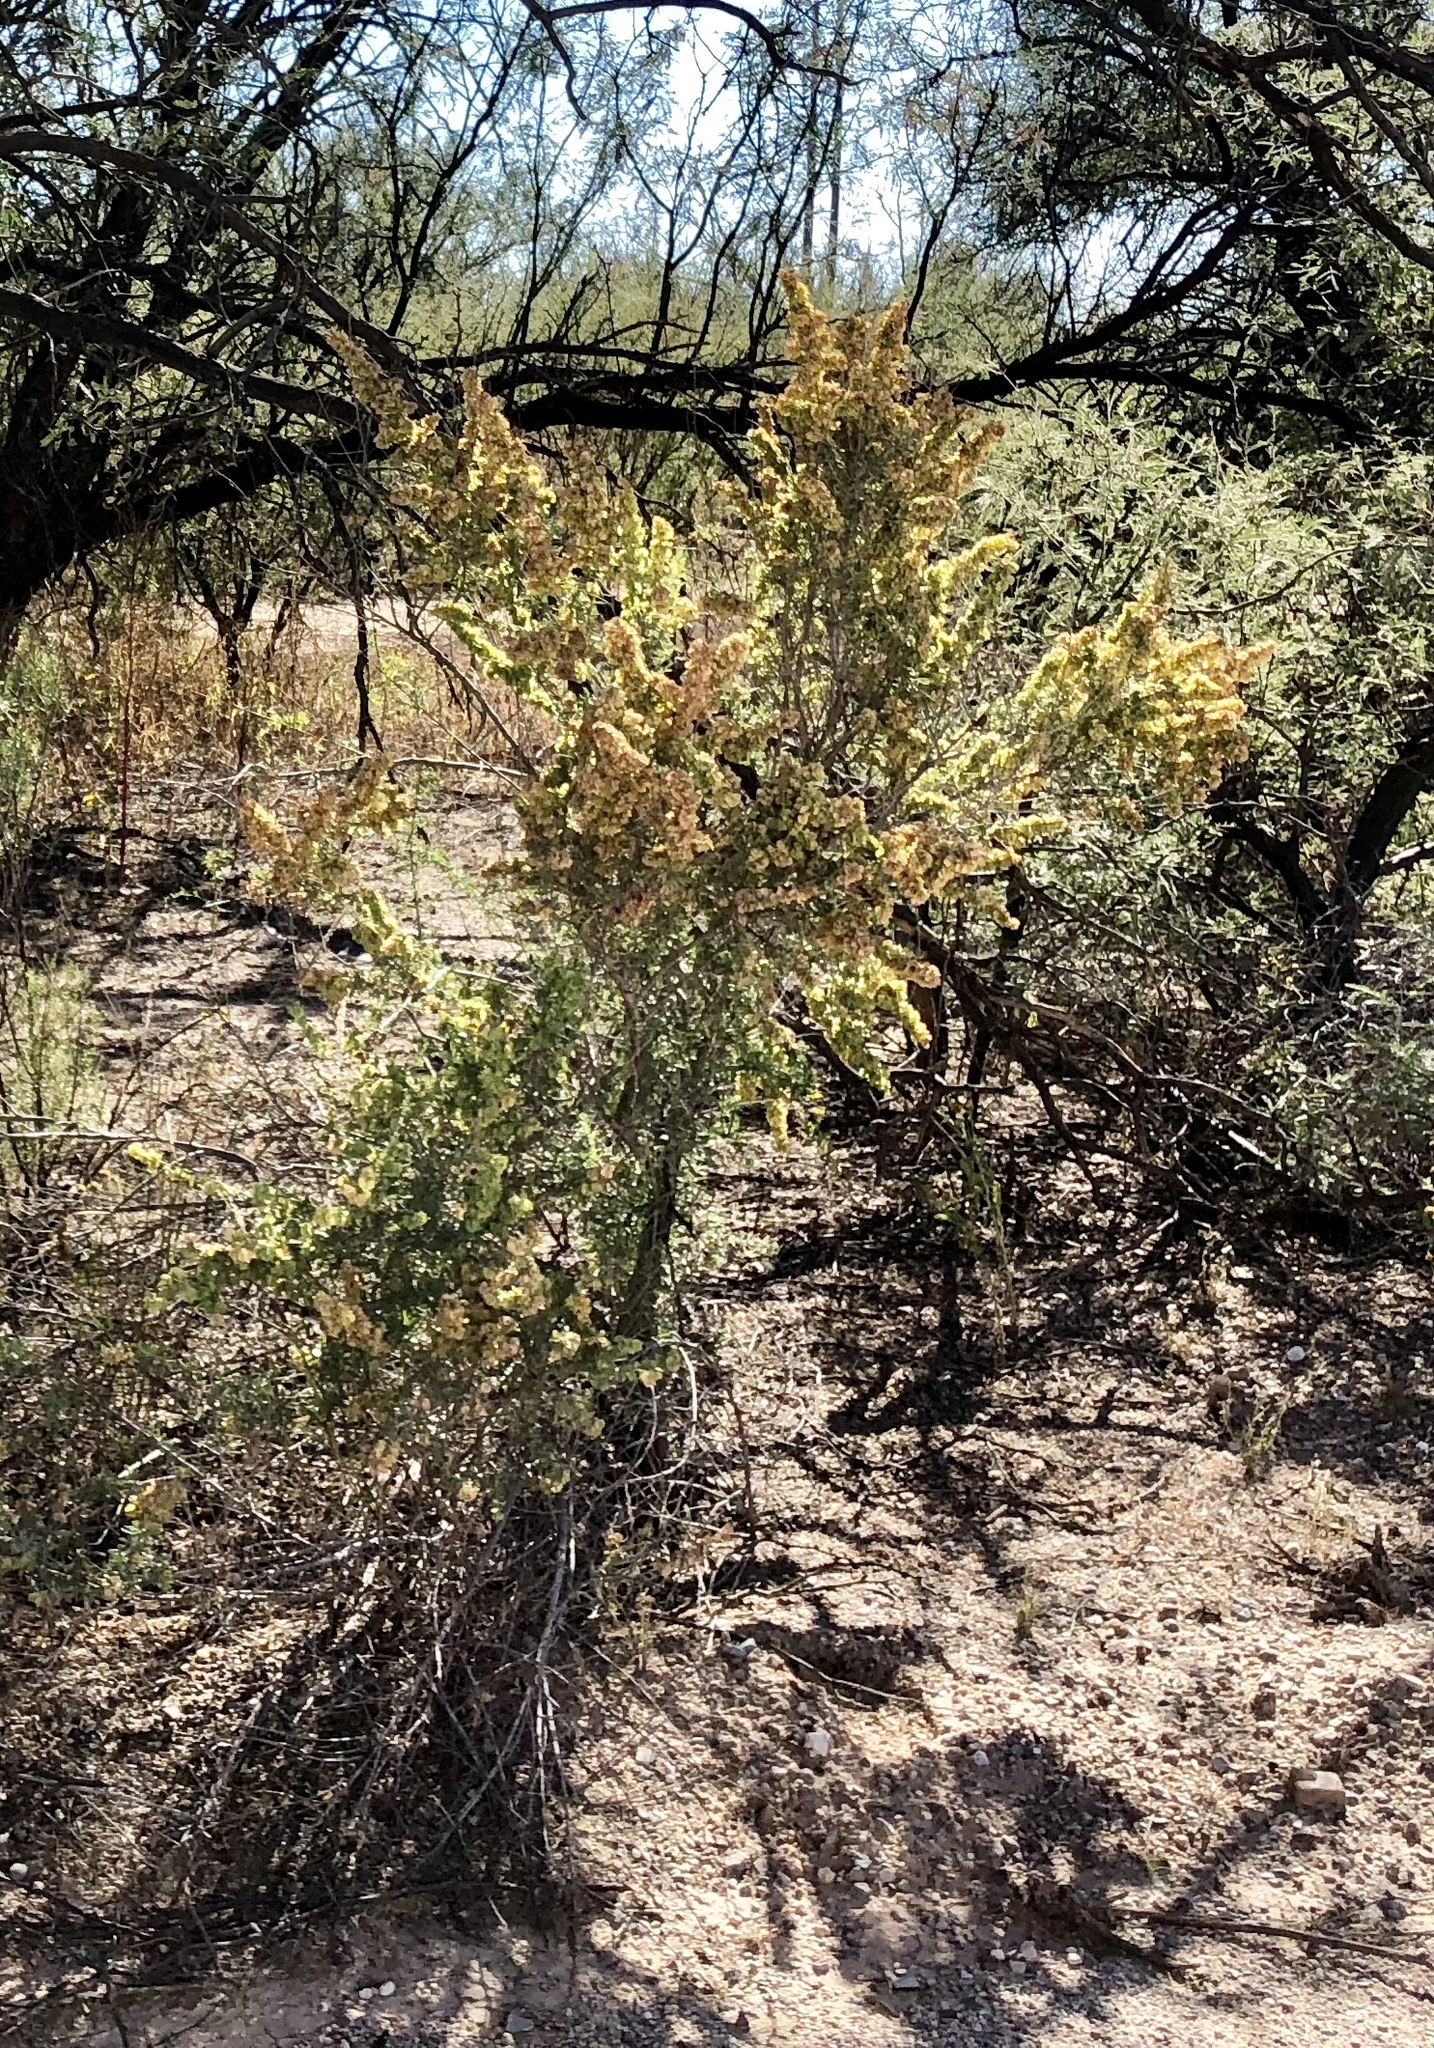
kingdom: Plantae
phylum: Tracheophyta
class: Magnoliopsida
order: Caryophyllales
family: Amaranthaceae
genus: Atriplex
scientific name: Atriplex canescens
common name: Four-wing saltbush
